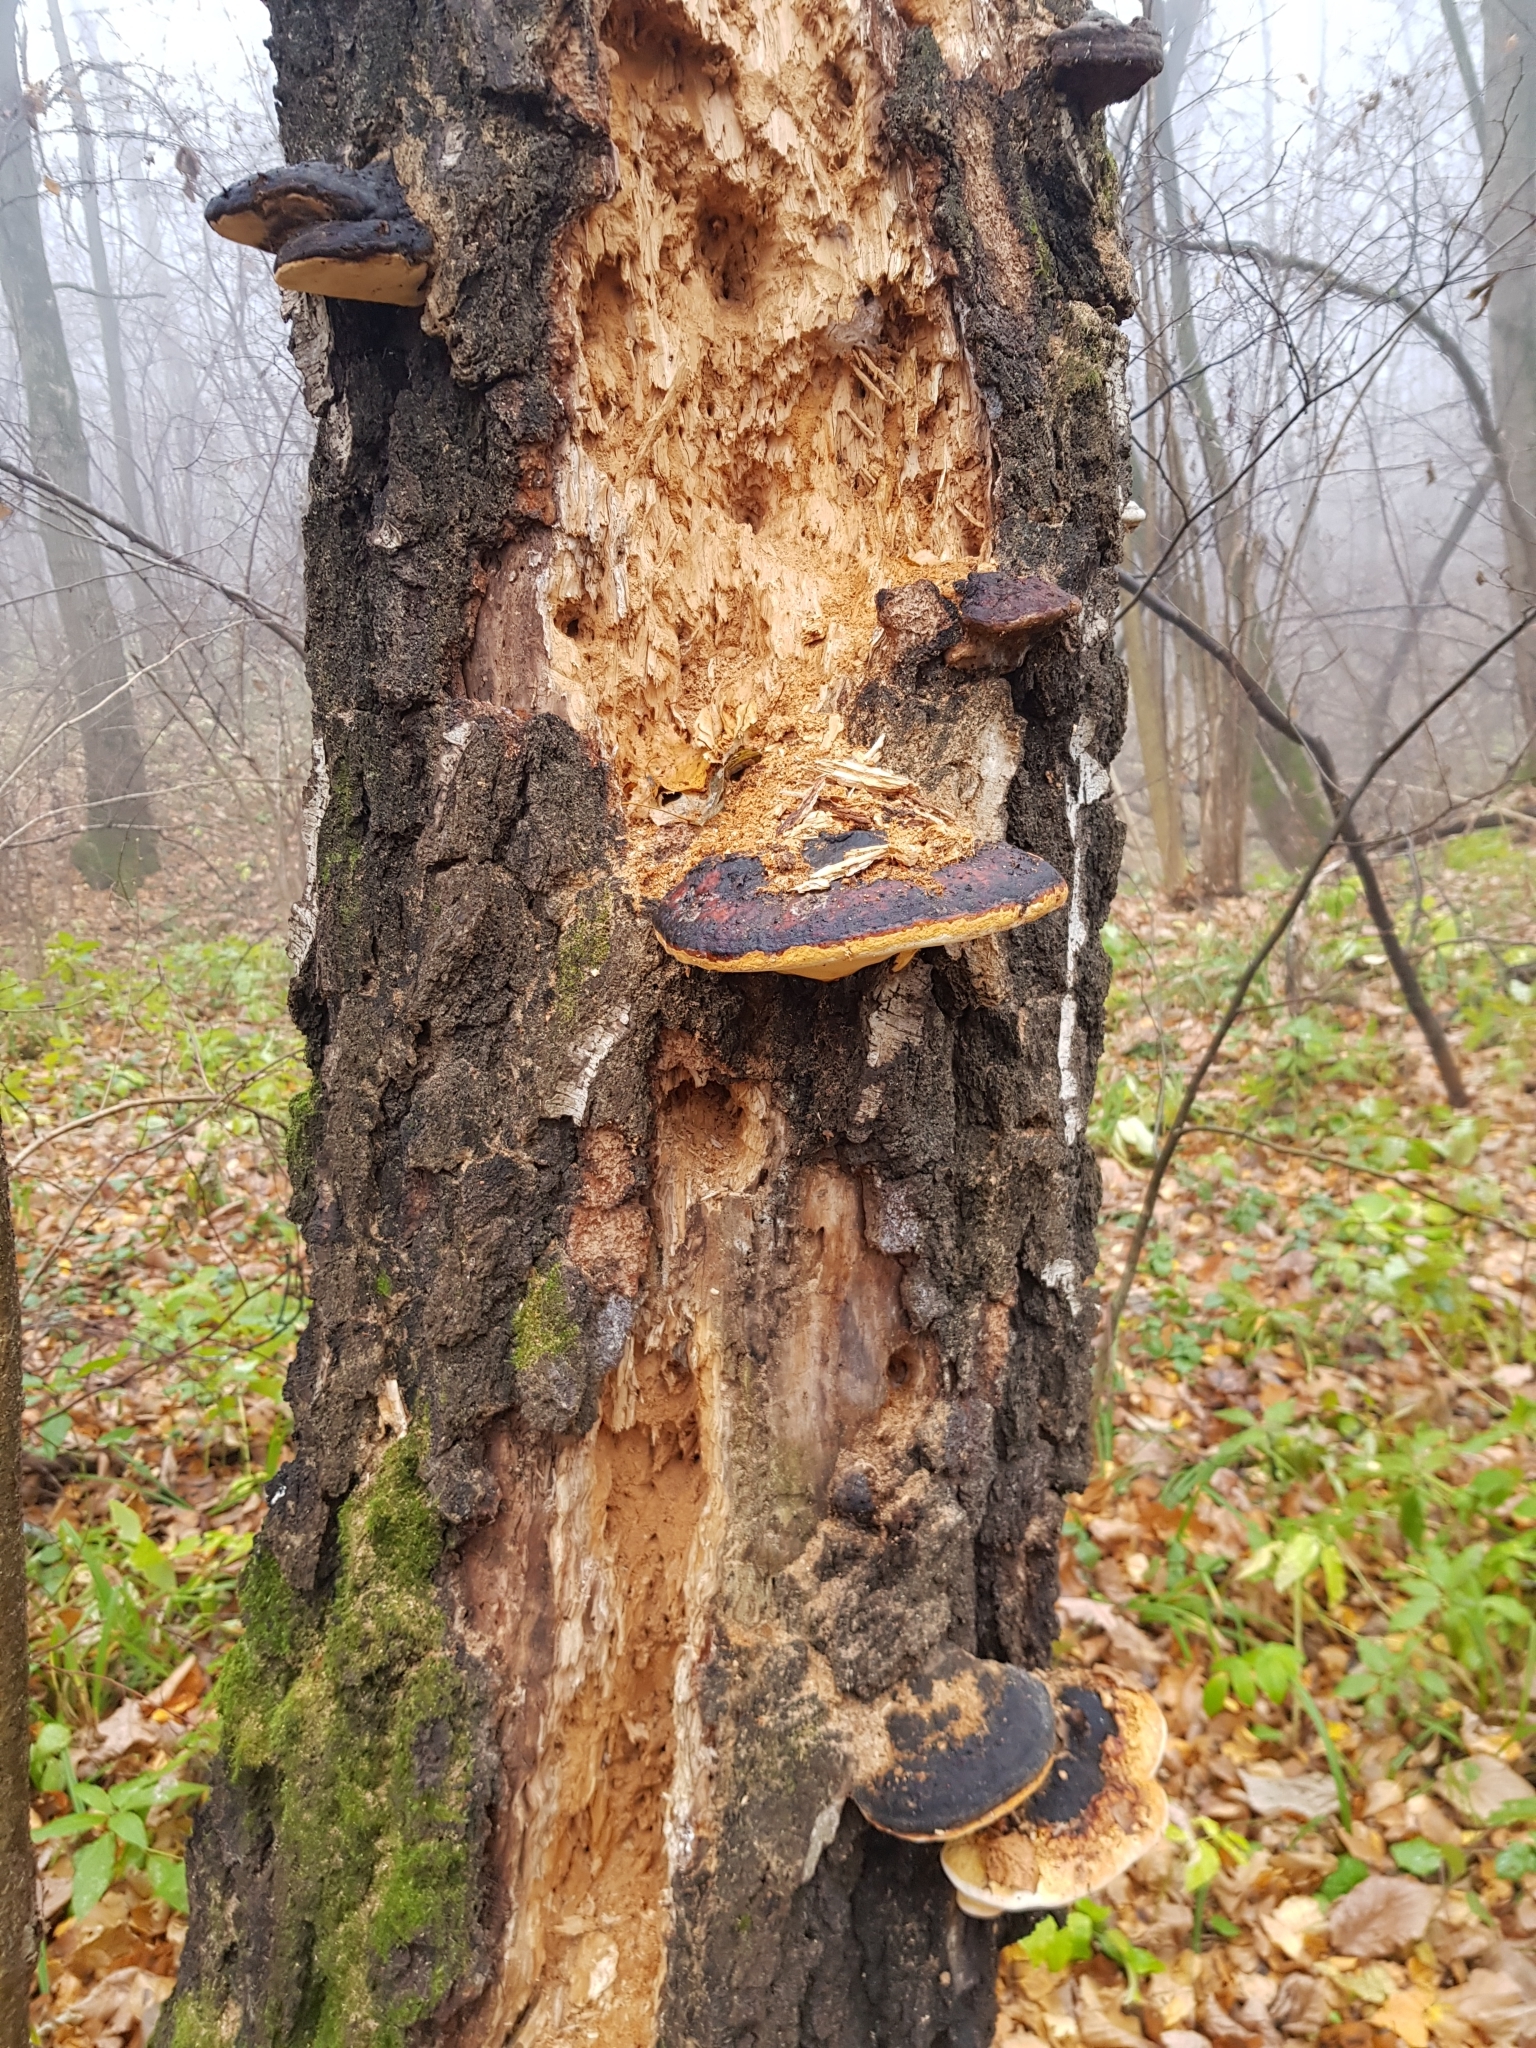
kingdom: Fungi
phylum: Basidiomycota
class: Agaricomycetes
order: Polyporales
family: Fomitopsidaceae
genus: Fomitopsis
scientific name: Fomitopsis pinicola
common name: Red-belted bracket
